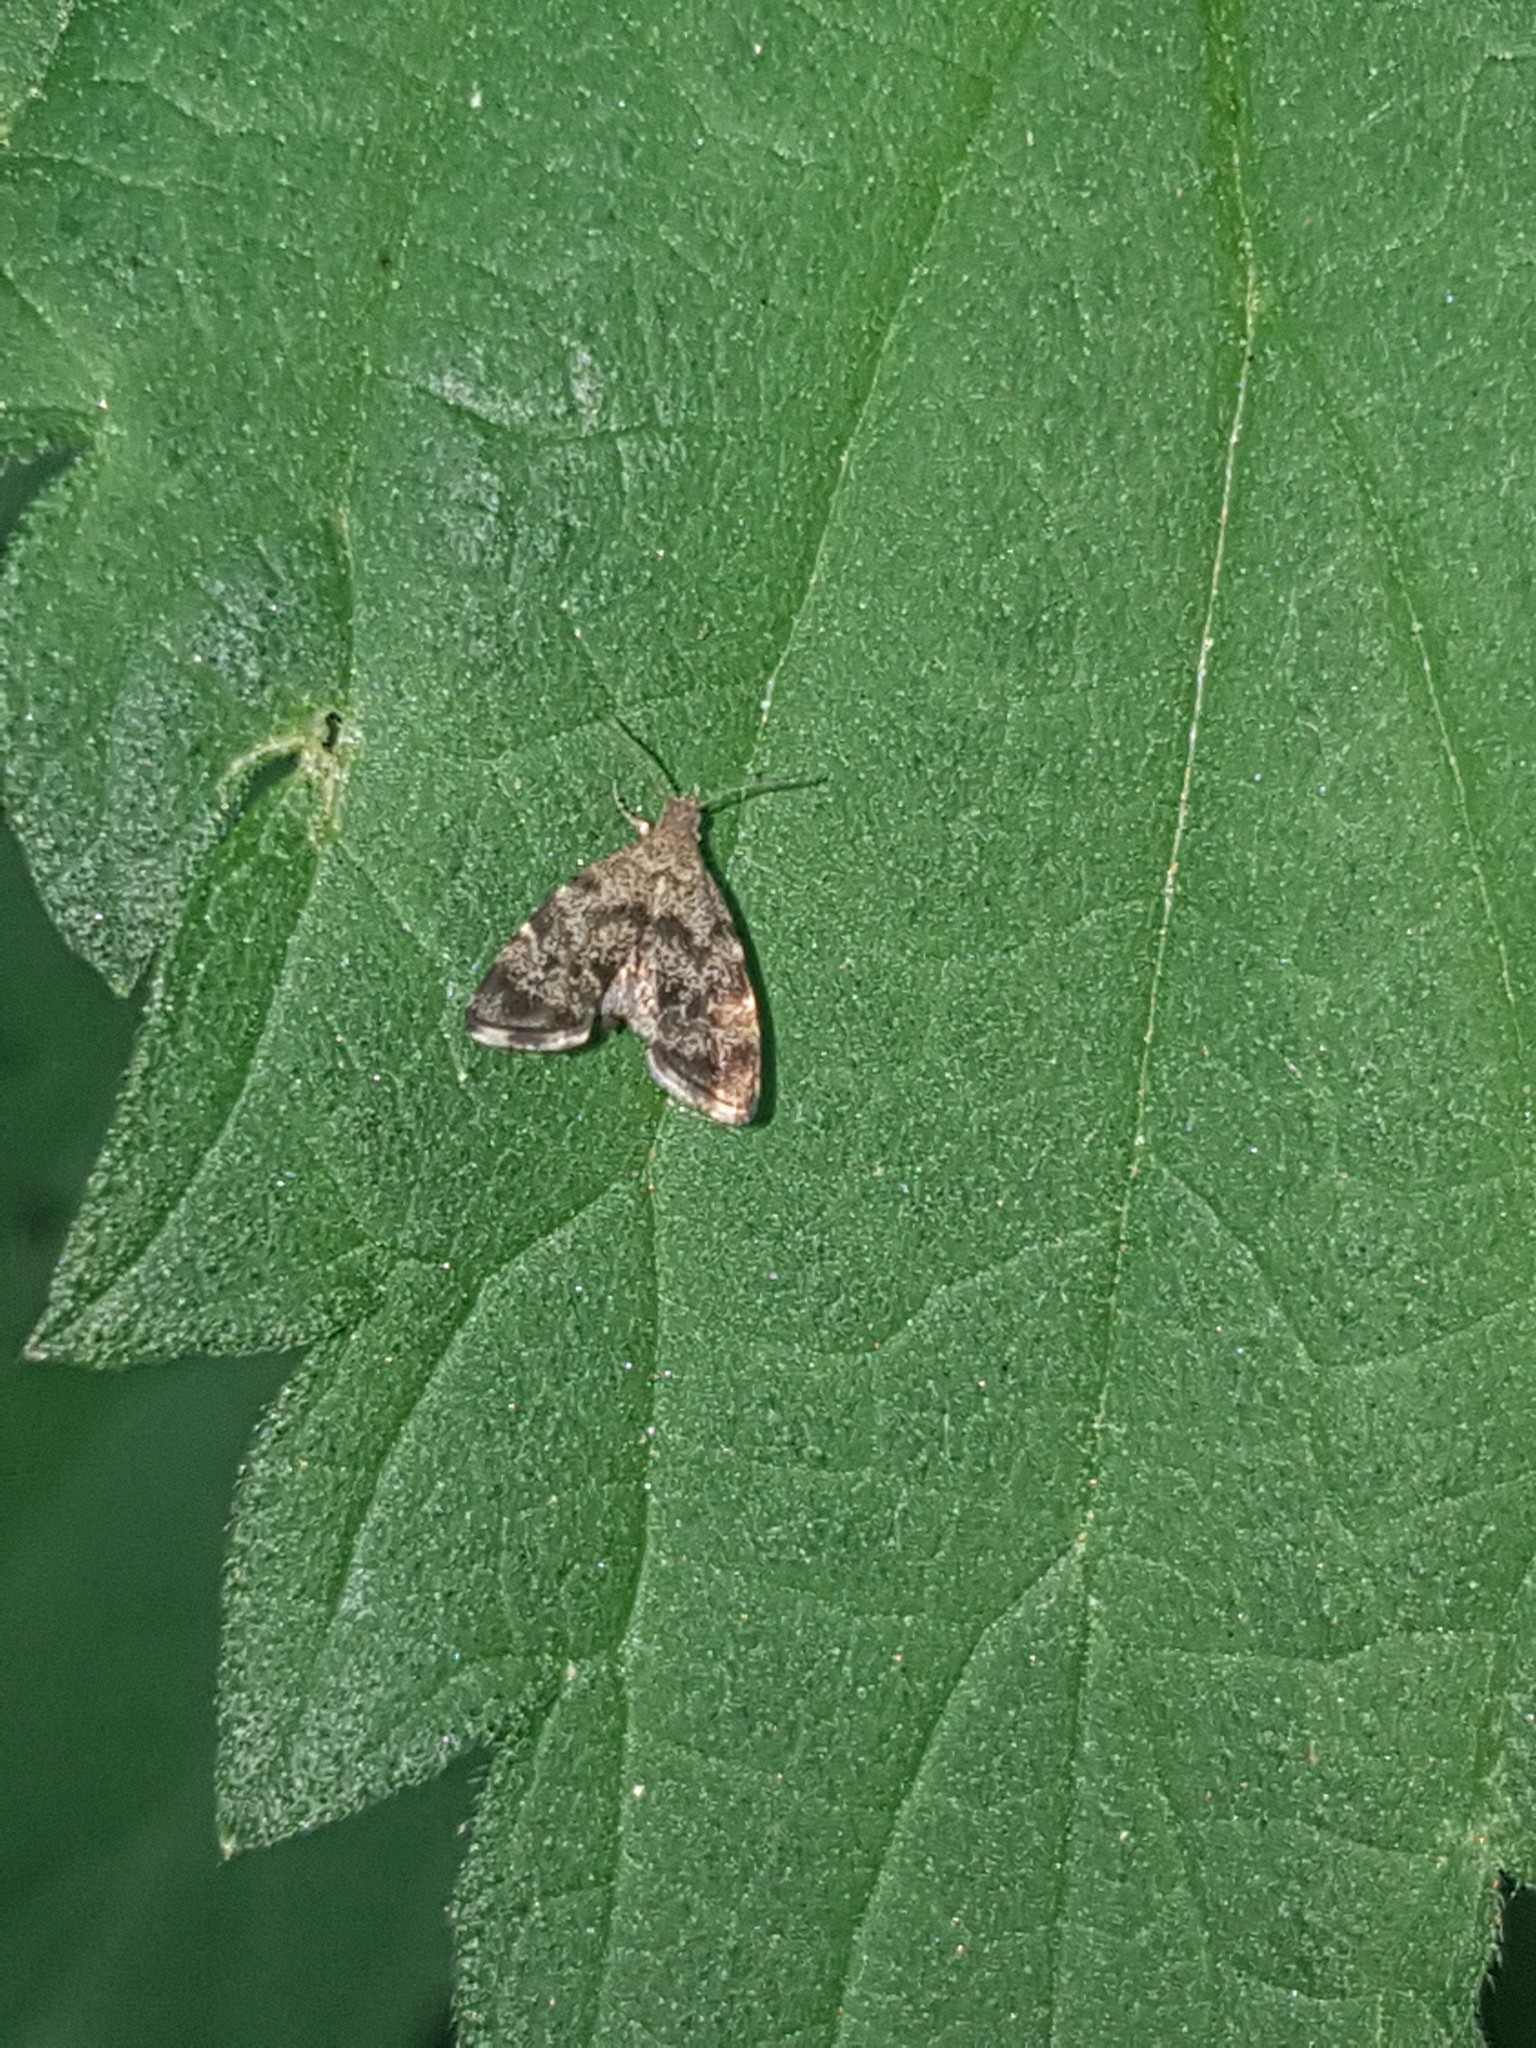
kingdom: Animalia
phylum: Arthropoda
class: Insecta
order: Lepidoptera
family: Choreutidae
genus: Anthophila
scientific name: Anthophila fabriciana
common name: Nettle-tap
